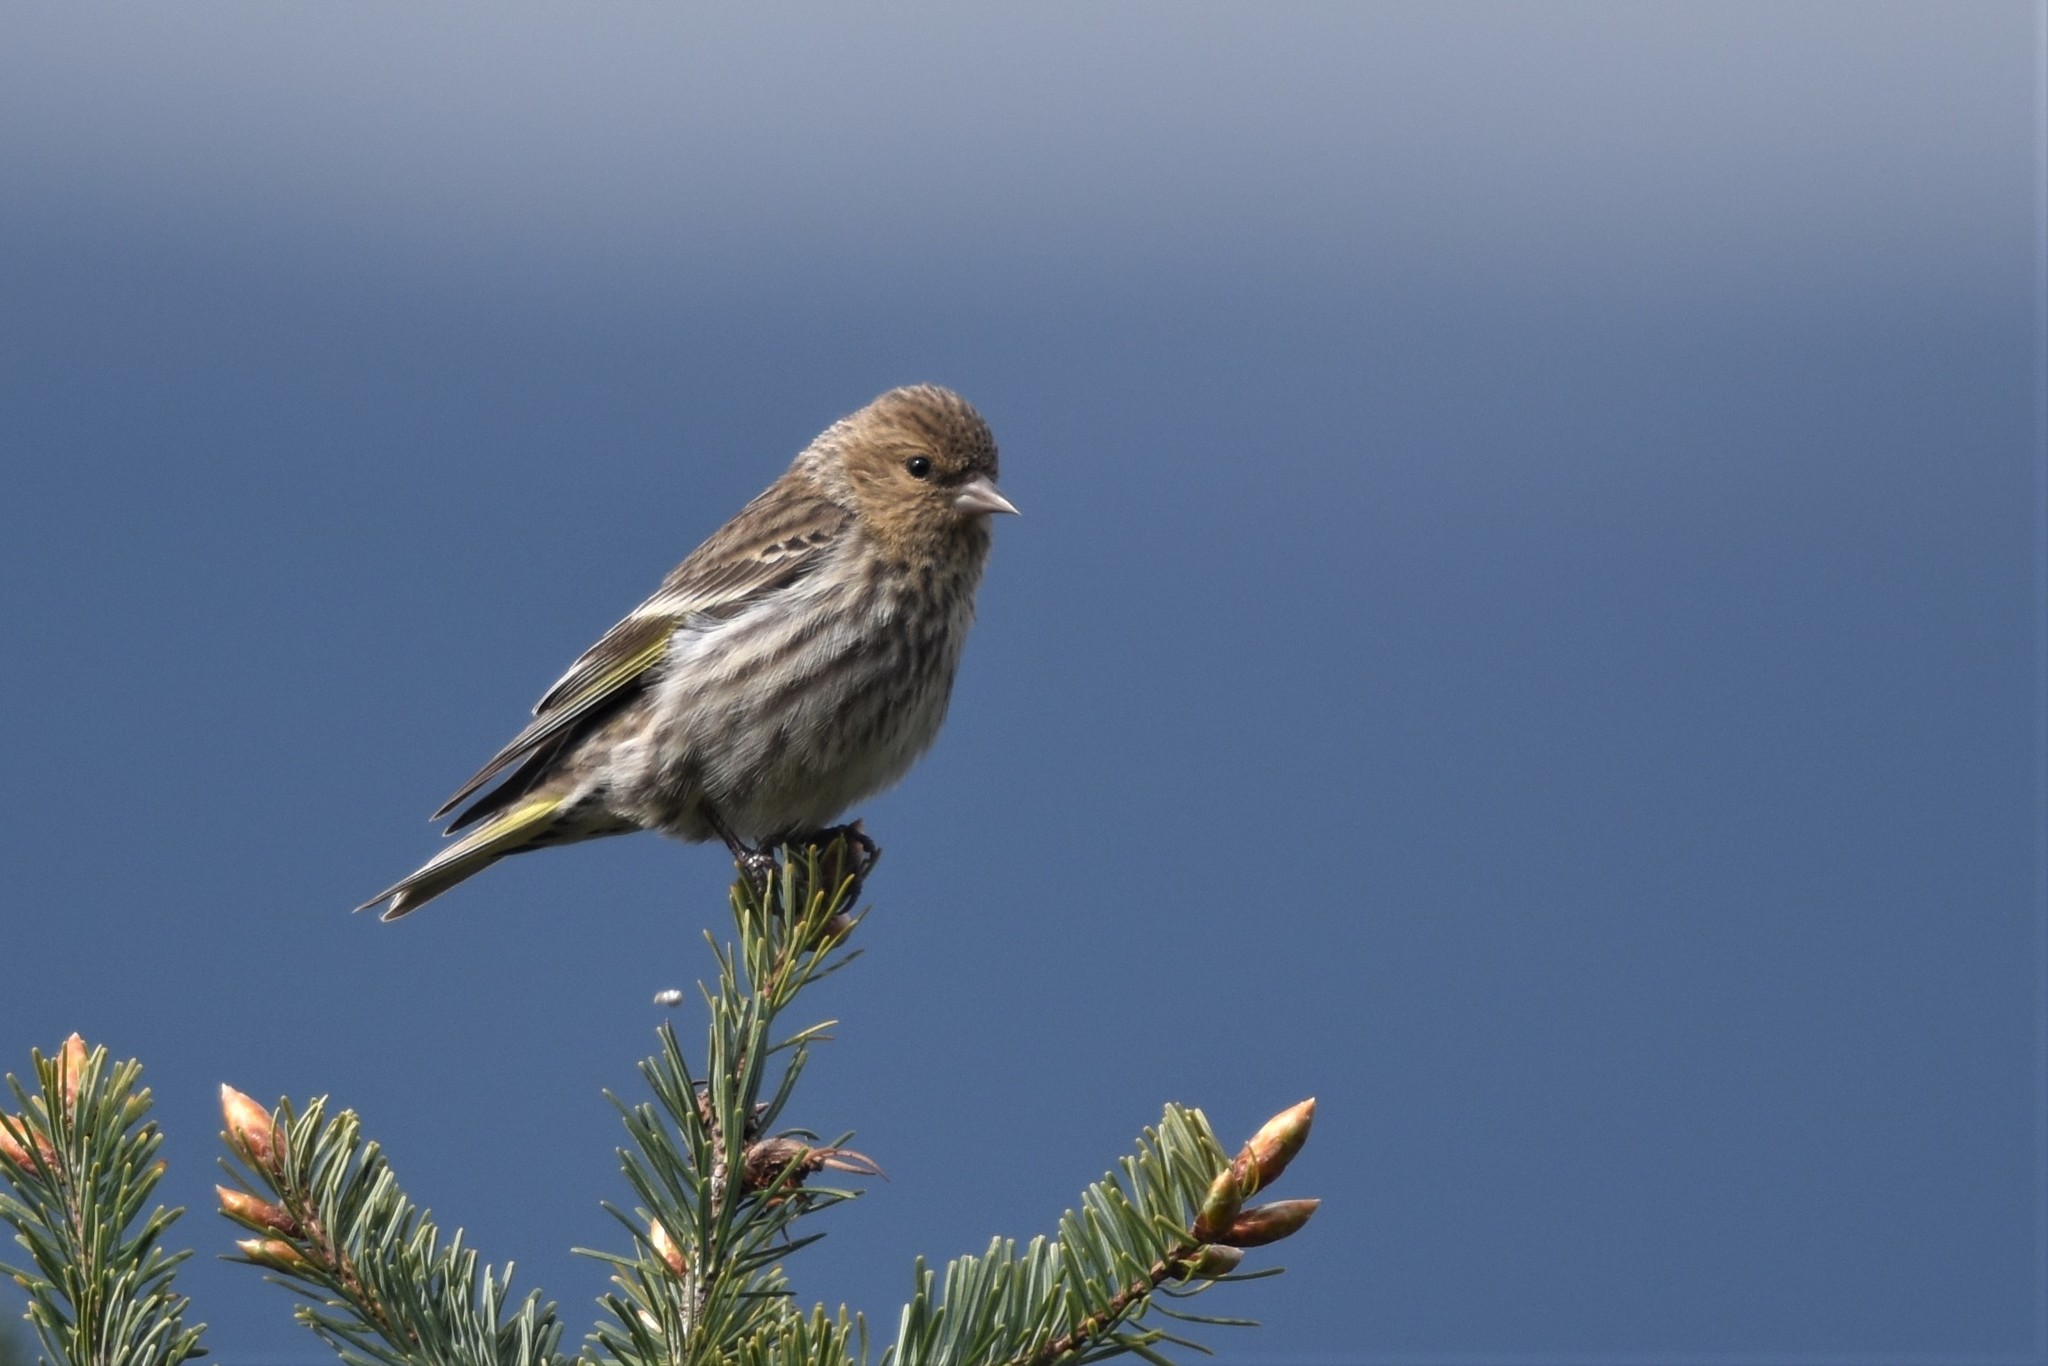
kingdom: Animalia
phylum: Chordata
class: Aves
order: Passeriformes
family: Fringillidae
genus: Spinus
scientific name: Spinus pinus
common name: Pine siskin
